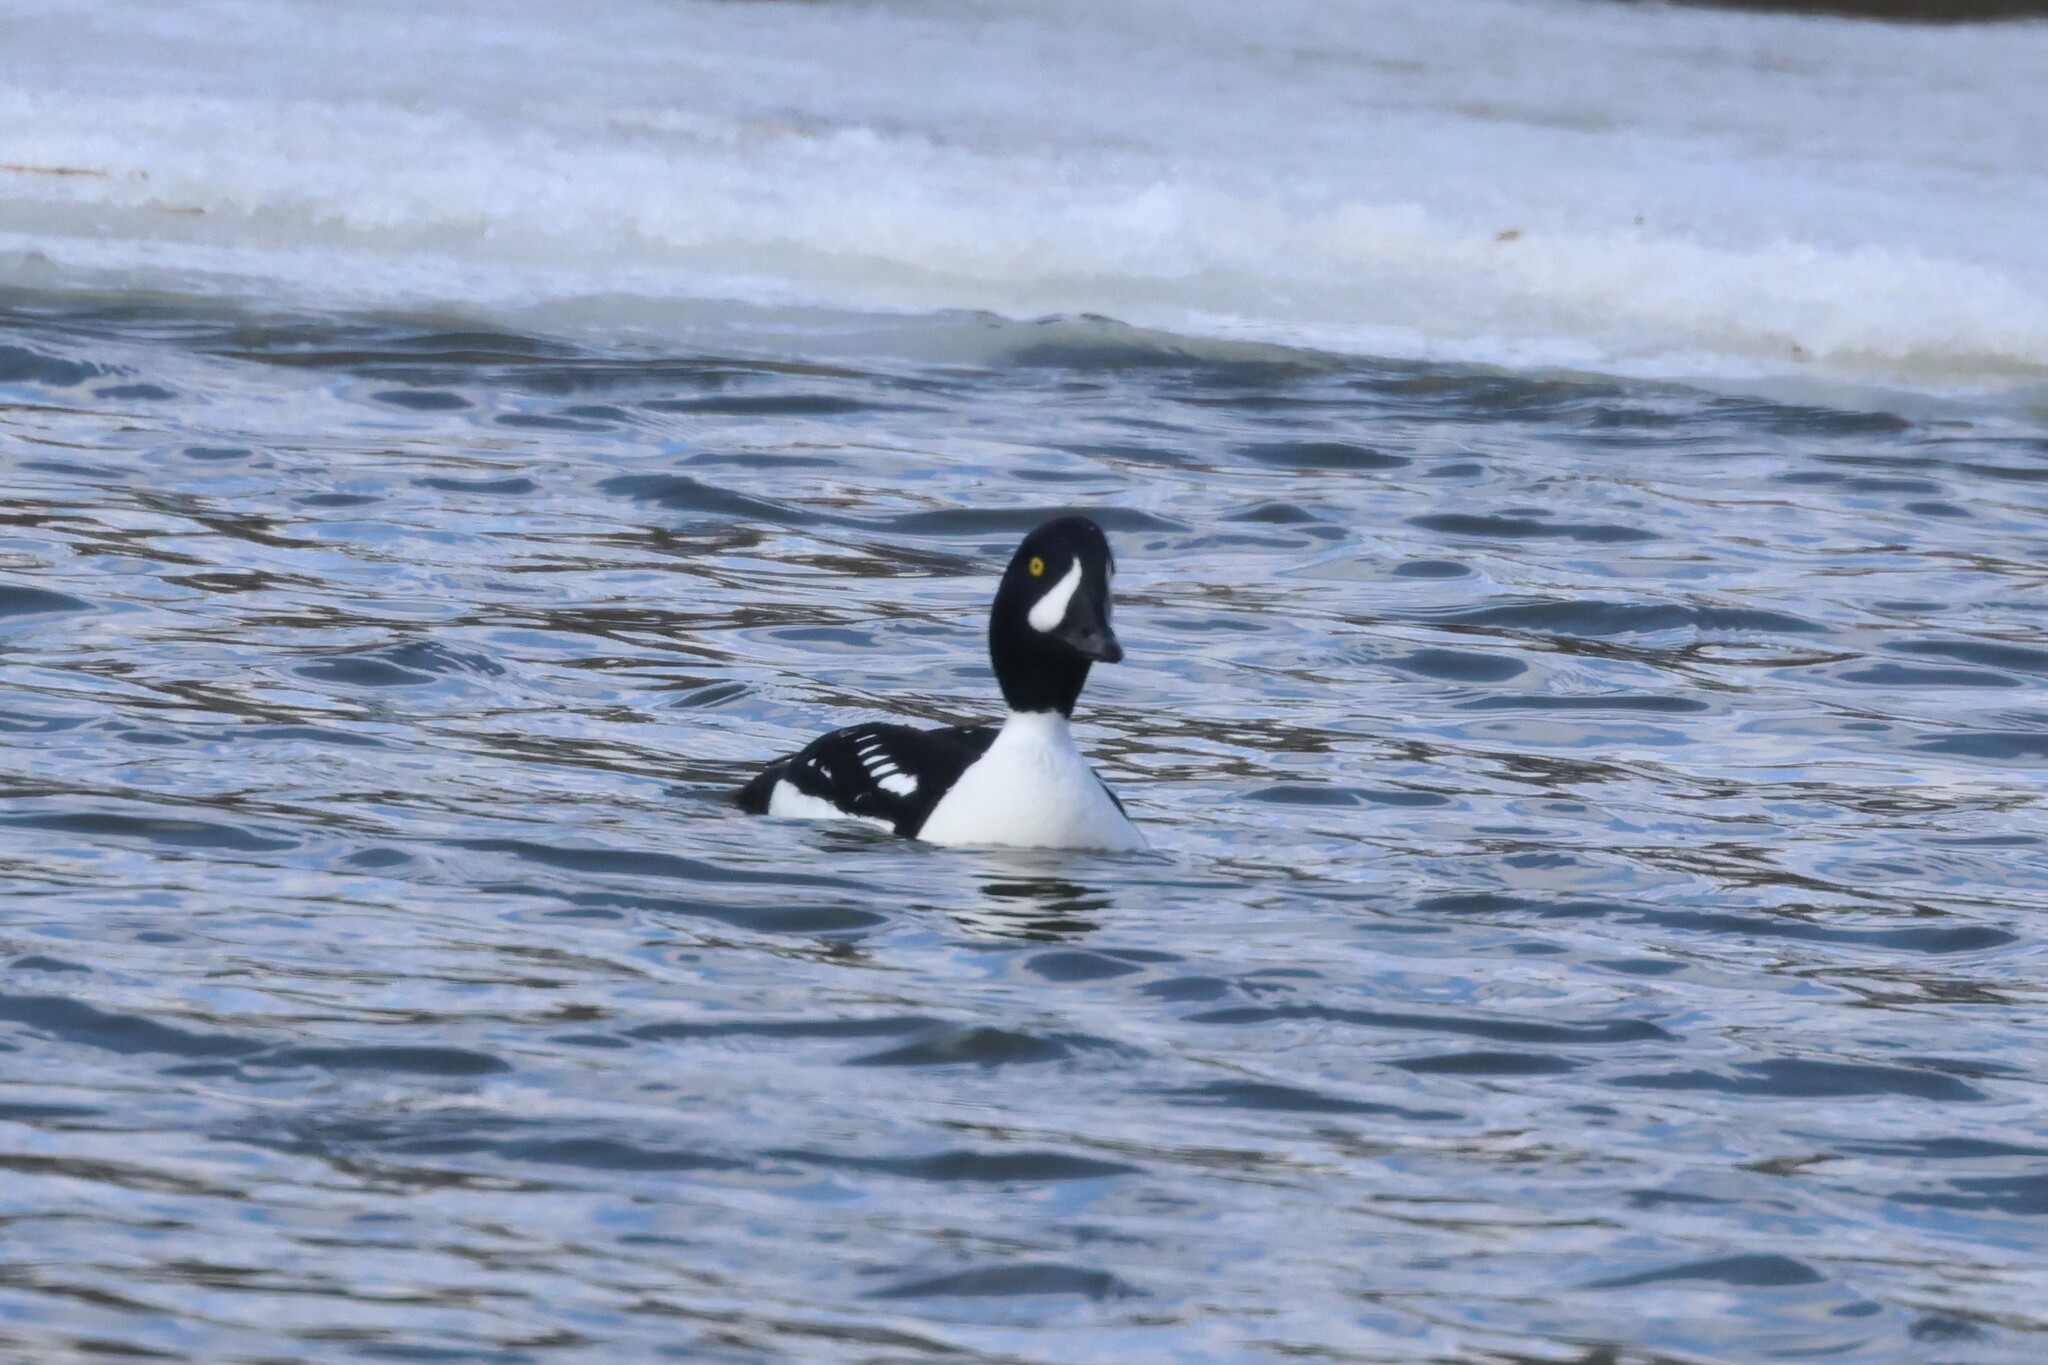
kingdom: Animalia
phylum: Chordata
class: Aves
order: Anseriformes
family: Anatidae
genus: Bucephala
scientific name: Bucephala islandica
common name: Barrow's goldeneye
